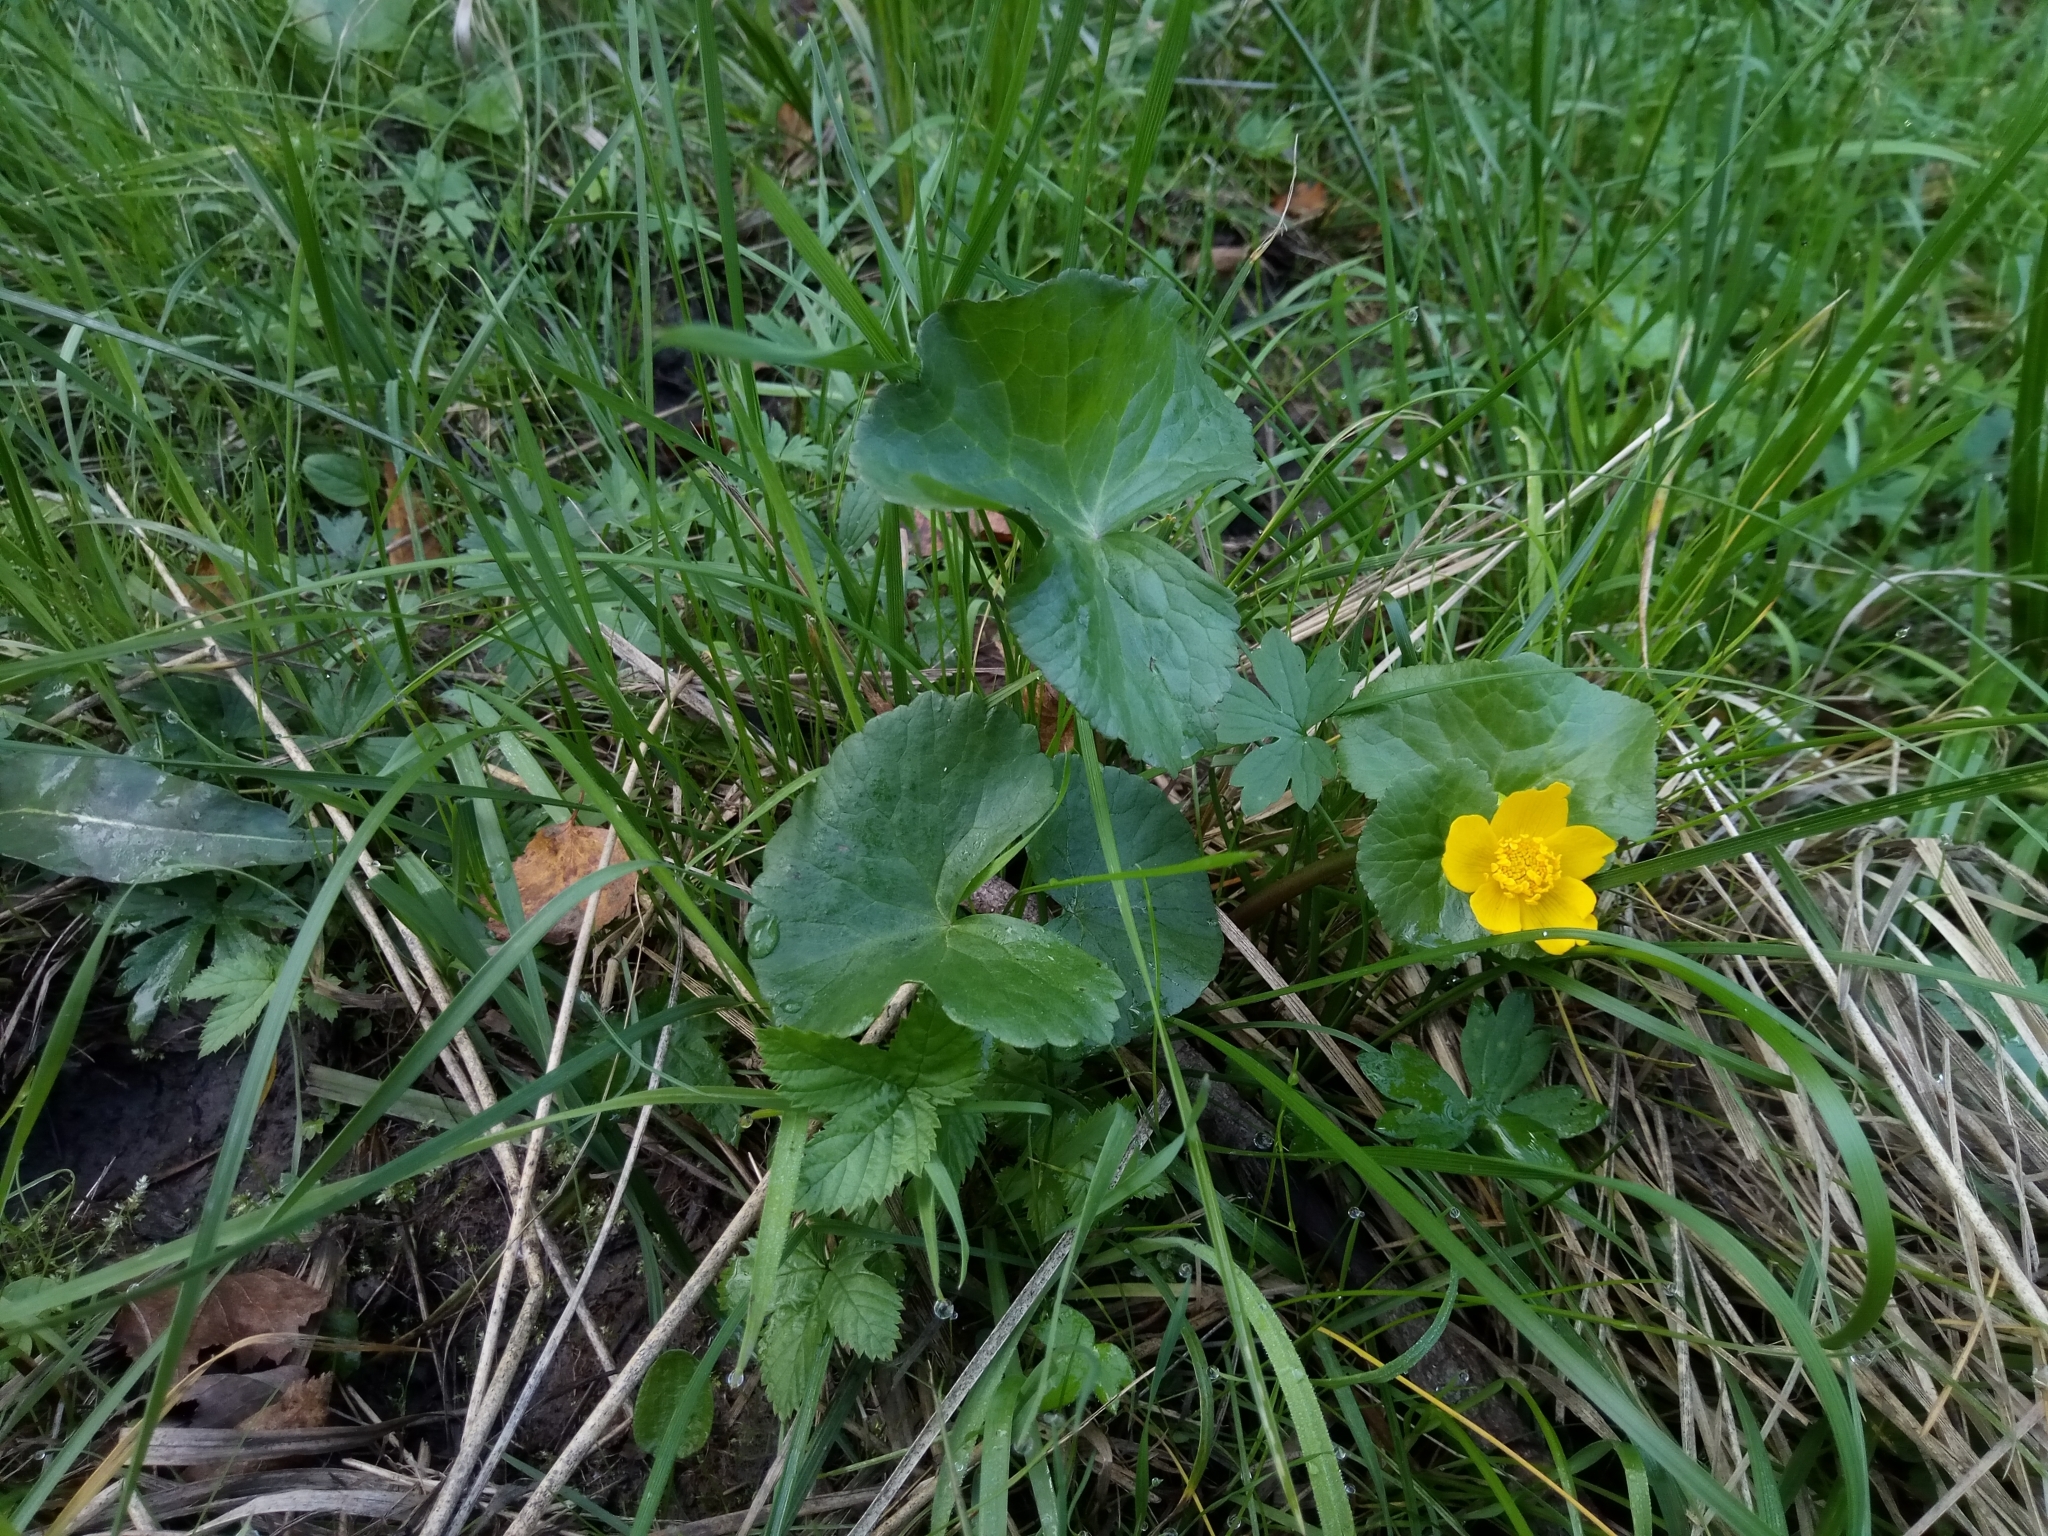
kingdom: Plantae
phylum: Tracheophyta
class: Magnoliopsida
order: Ranunculales
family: Ranunculaceae
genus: Caltha
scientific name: Caltha palustris
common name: Marsh marigold
